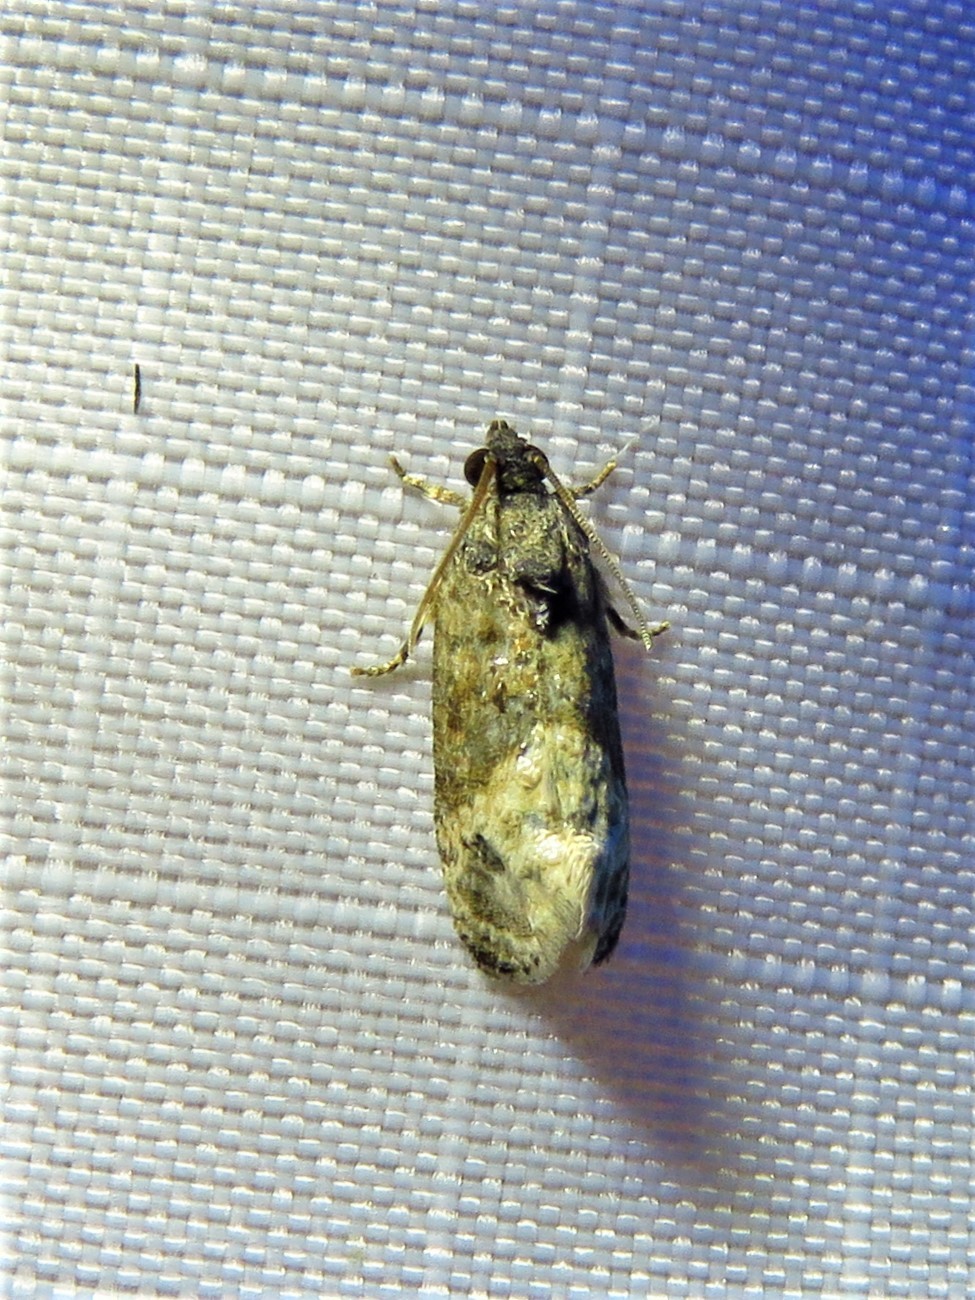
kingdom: Animalia
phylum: Arthropoda
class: Insecta
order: Lepidoptera
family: Tortricidae
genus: Ecdytolopha
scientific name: Ecdytolopha mana
